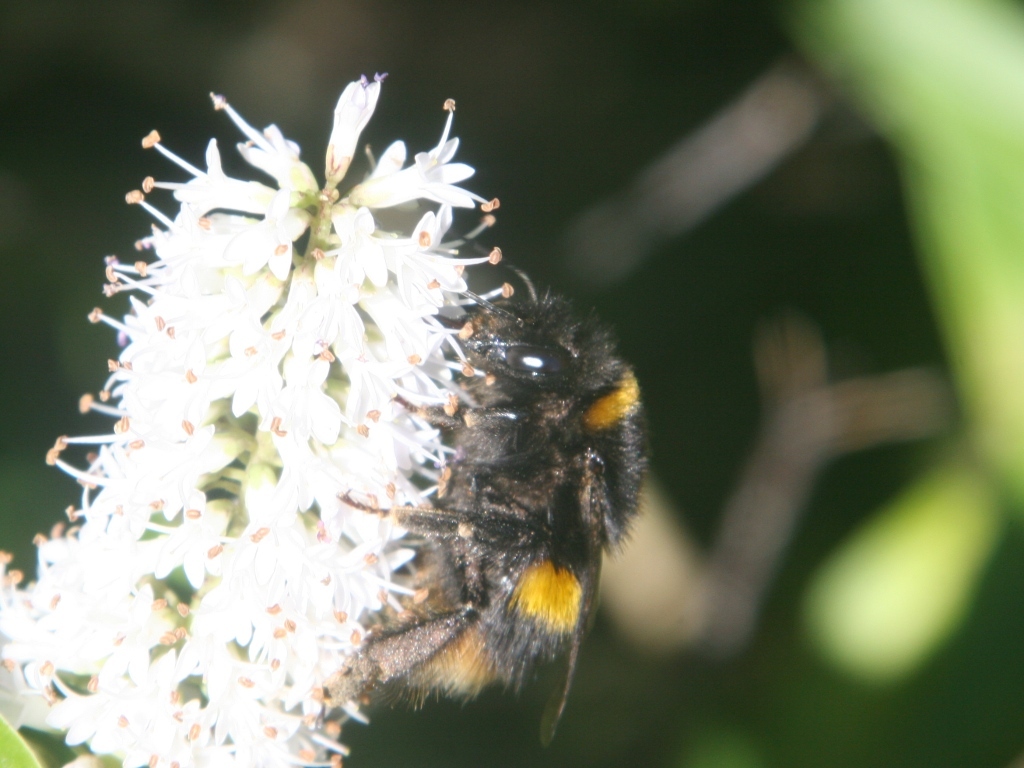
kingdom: Animalia
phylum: Arthropoda
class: Insecta
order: Hymenoptera
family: Apidae
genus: Bombus
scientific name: Bombus terrestris
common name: Buff-tailed bumblebee
